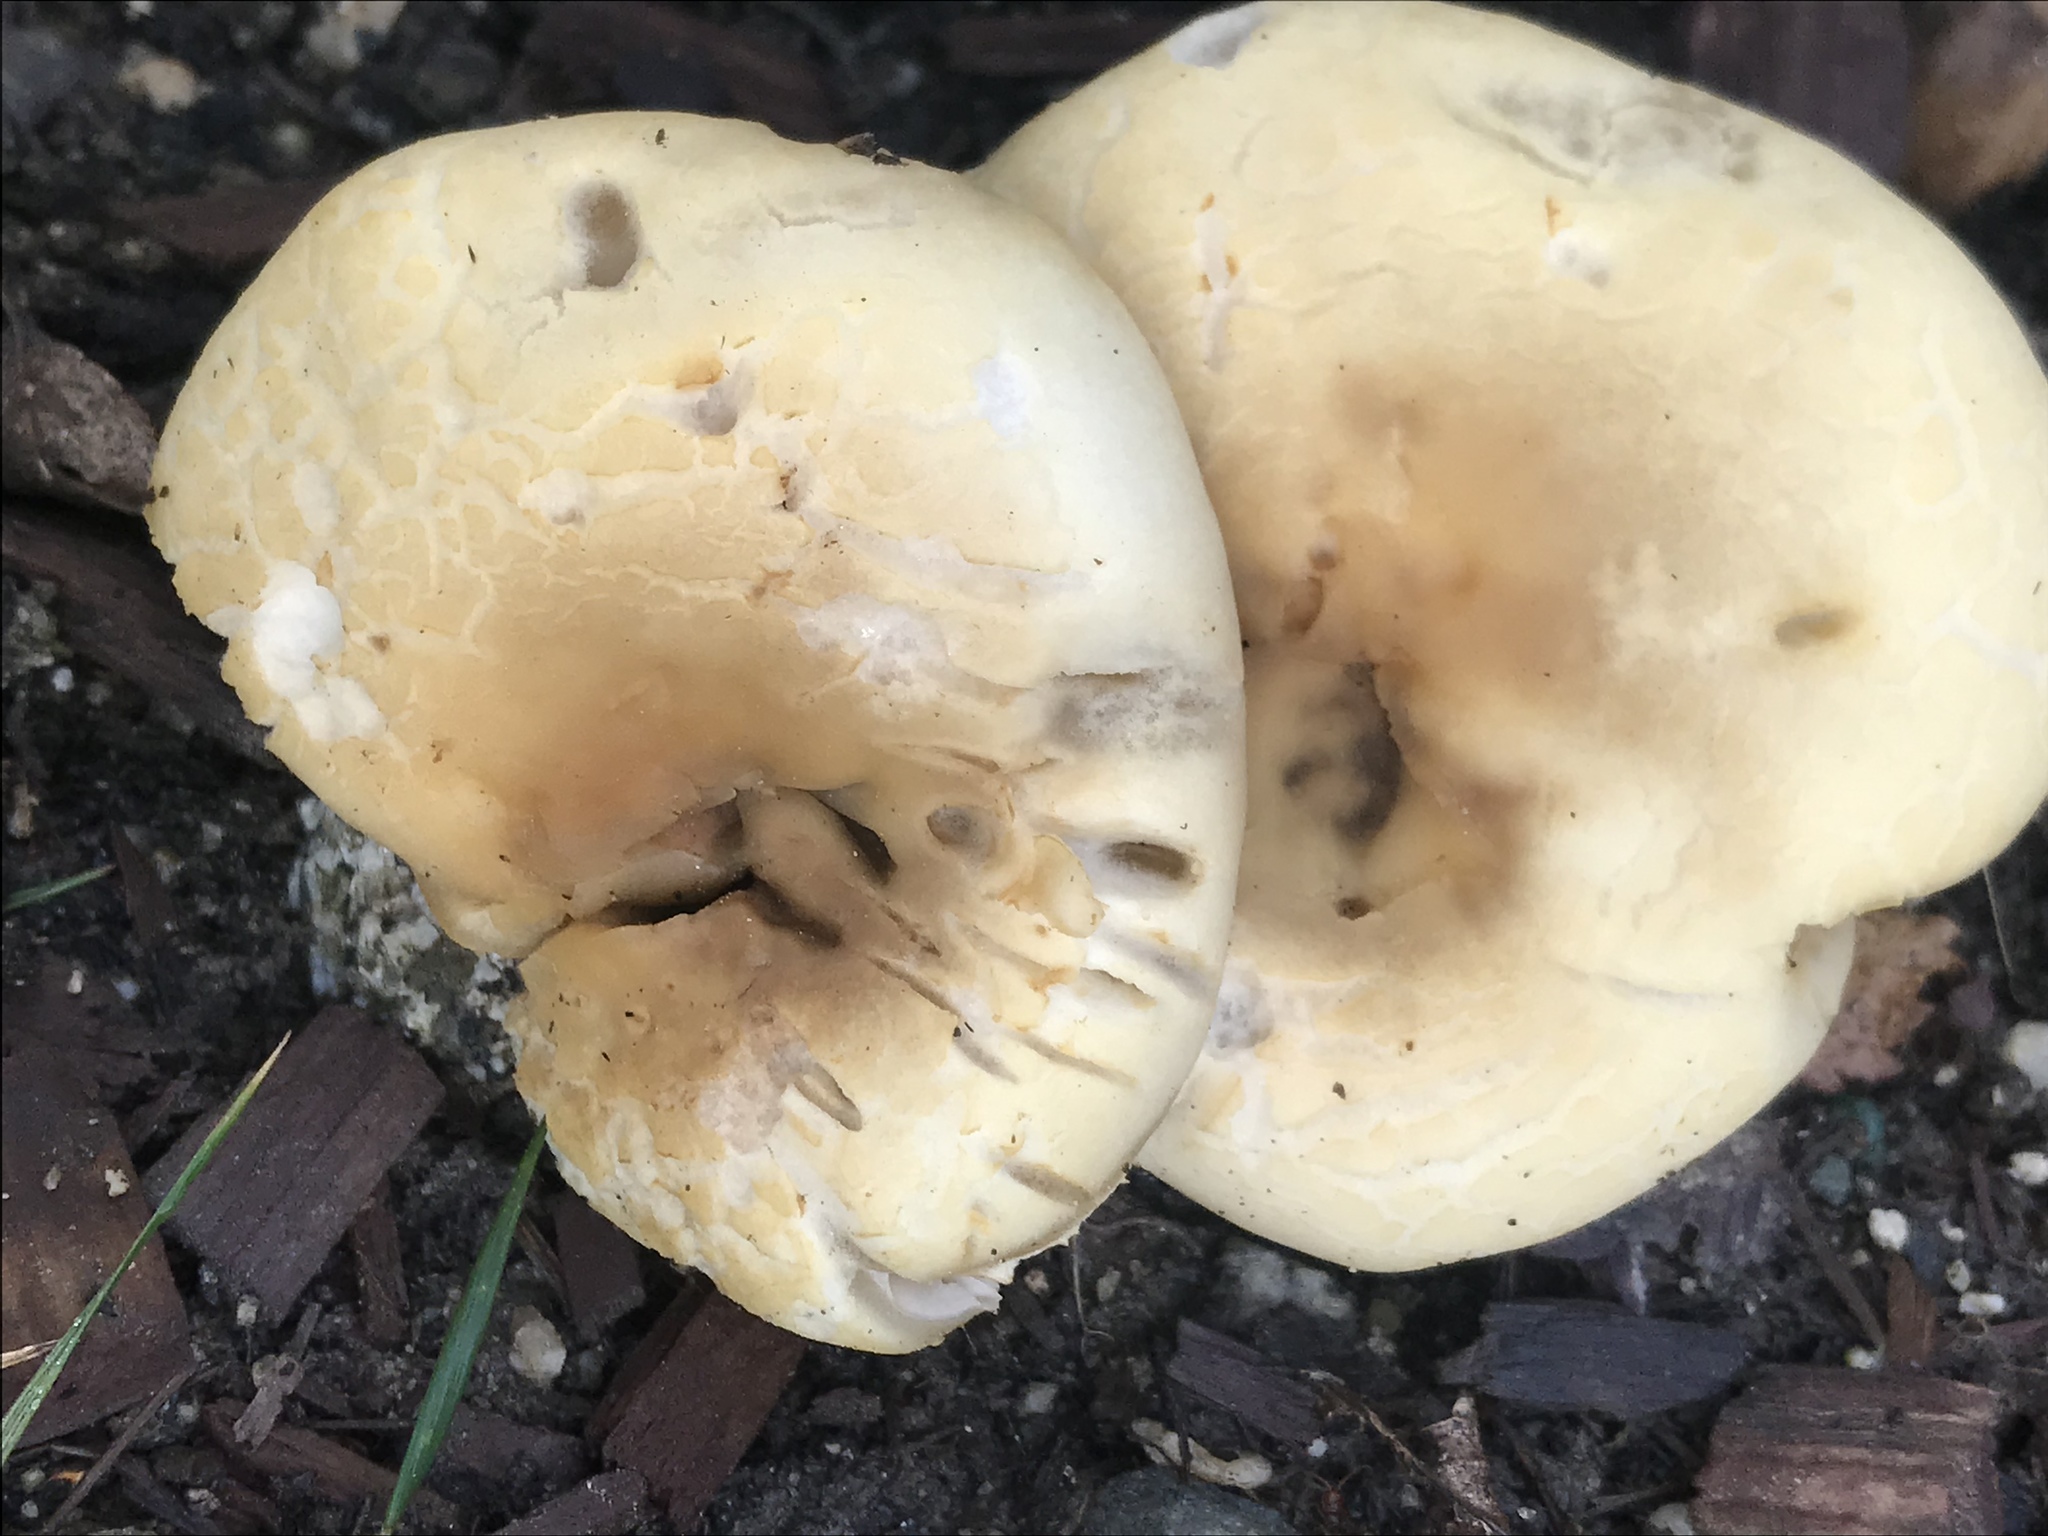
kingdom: Fungi
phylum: Basidiomycota
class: Agaricomycetes
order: Agaricales
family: Strophariaceae
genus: Agrocybe
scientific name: Agrocybe praecox
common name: Spring fieldcap
